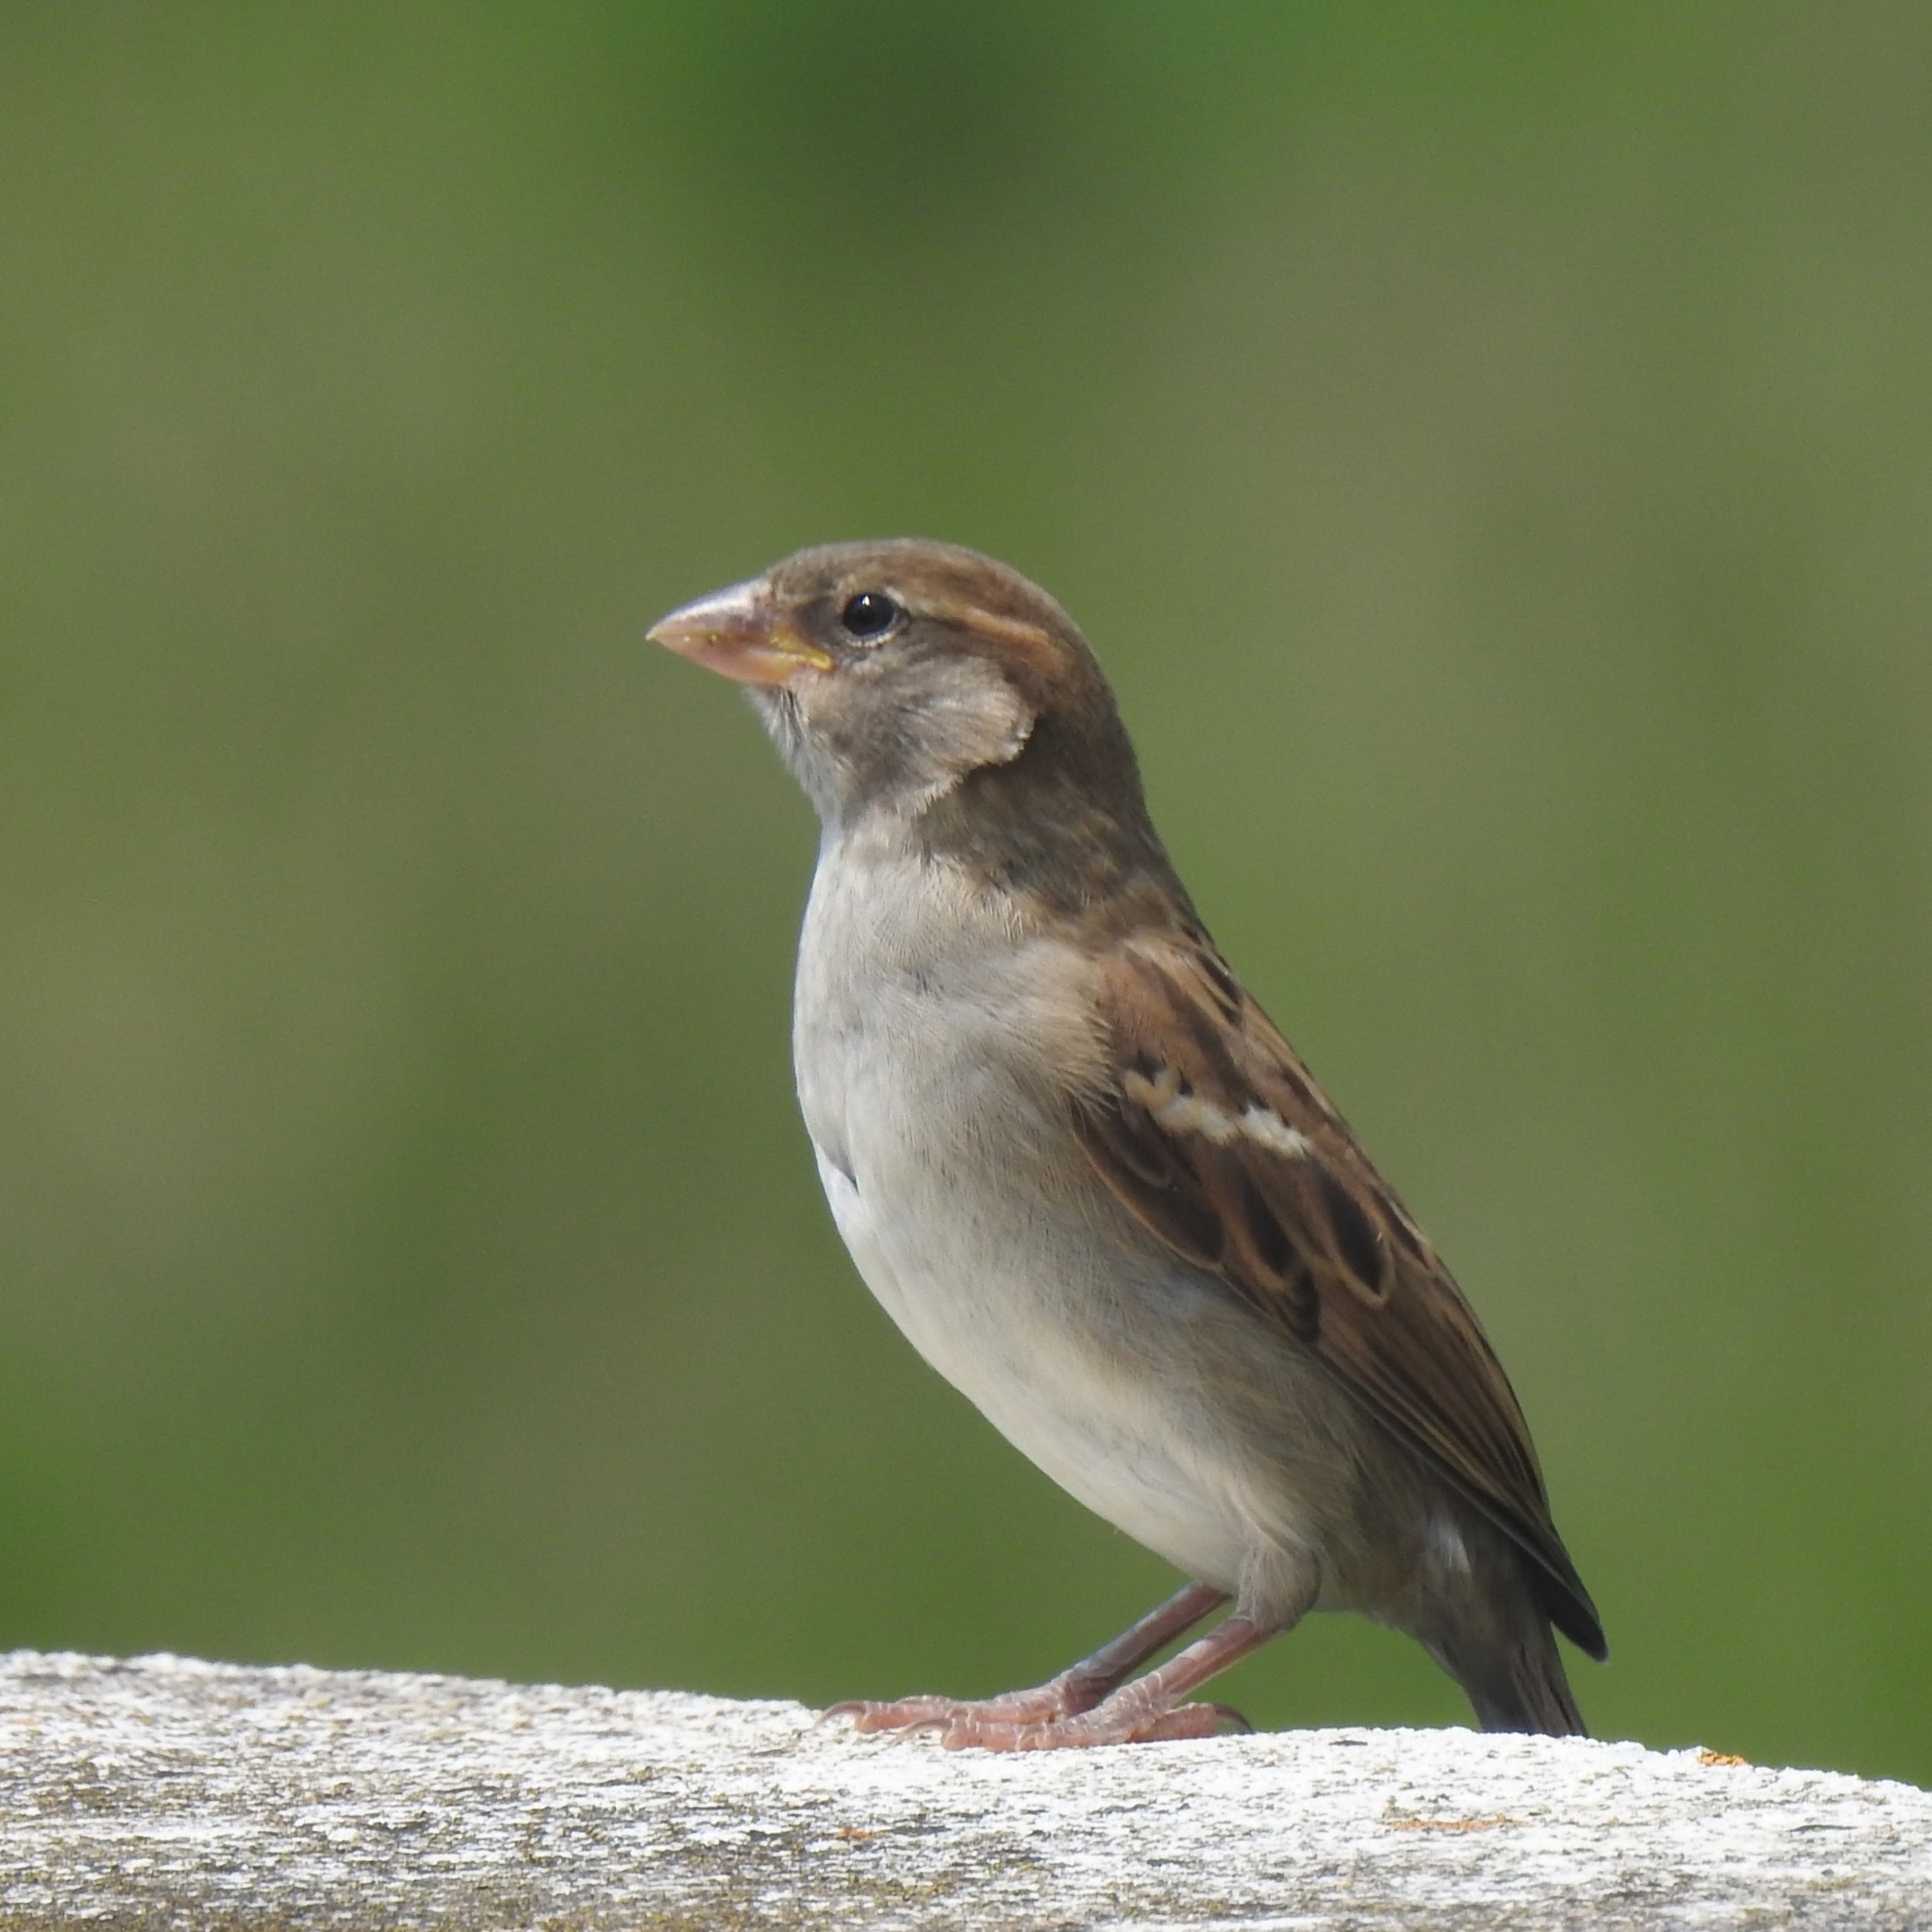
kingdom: Animalia
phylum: Chordata
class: Aves
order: Passeriformes
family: Passeridae
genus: Passer
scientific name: Passer domesticus
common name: House sparrow
